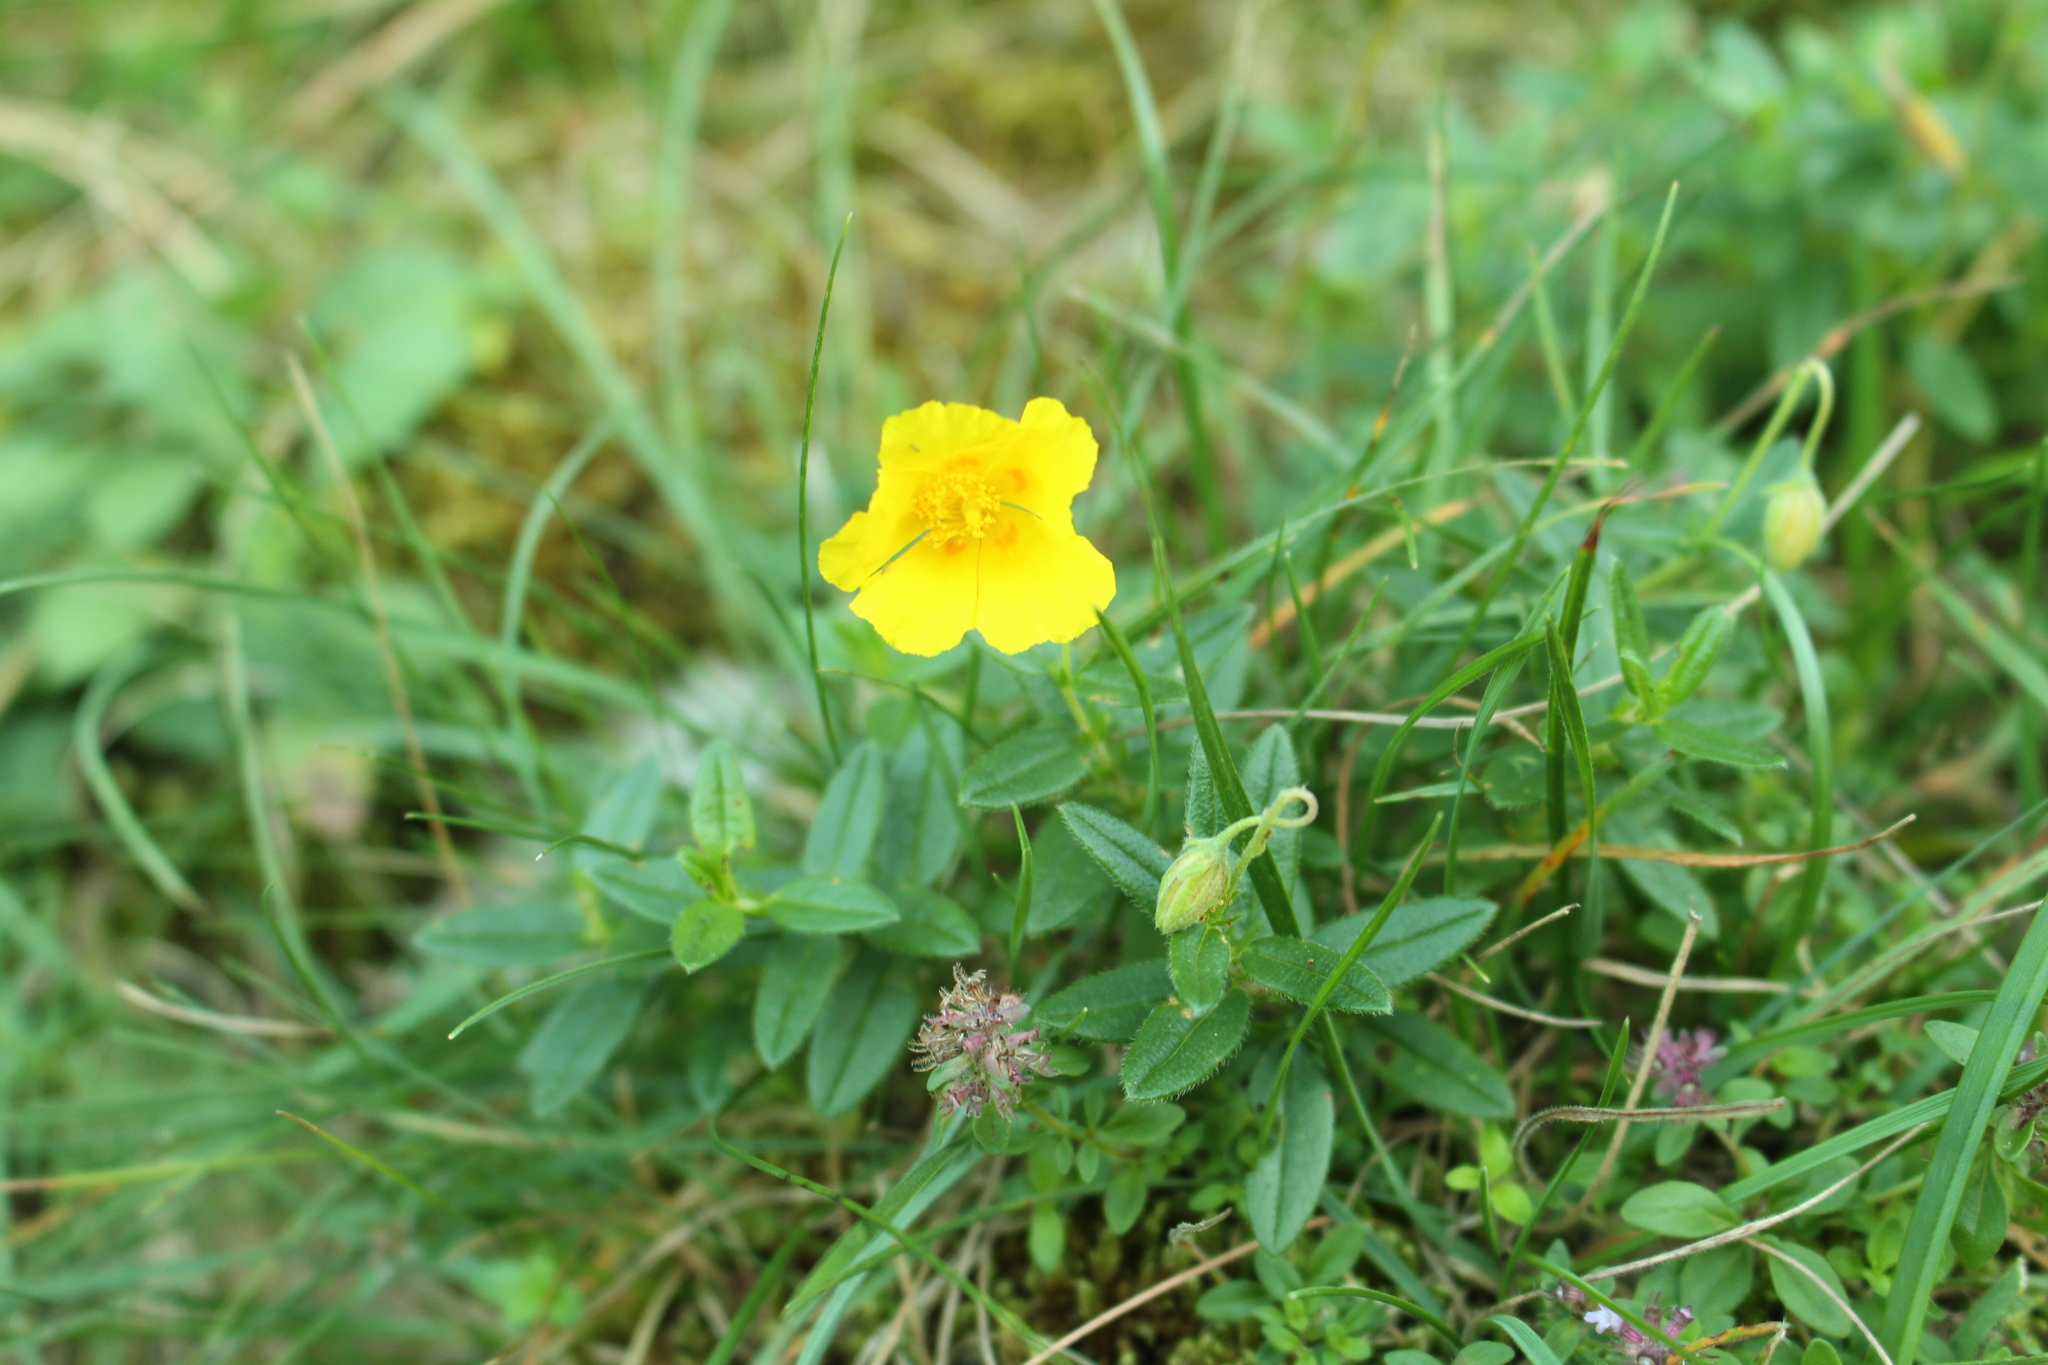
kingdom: Plantae
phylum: Tracheophyta
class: Magnoliopsida
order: Malvales
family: Cistaceae
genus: Helianthemum
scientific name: Helianthemum nummularium
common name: Common rock-rose
